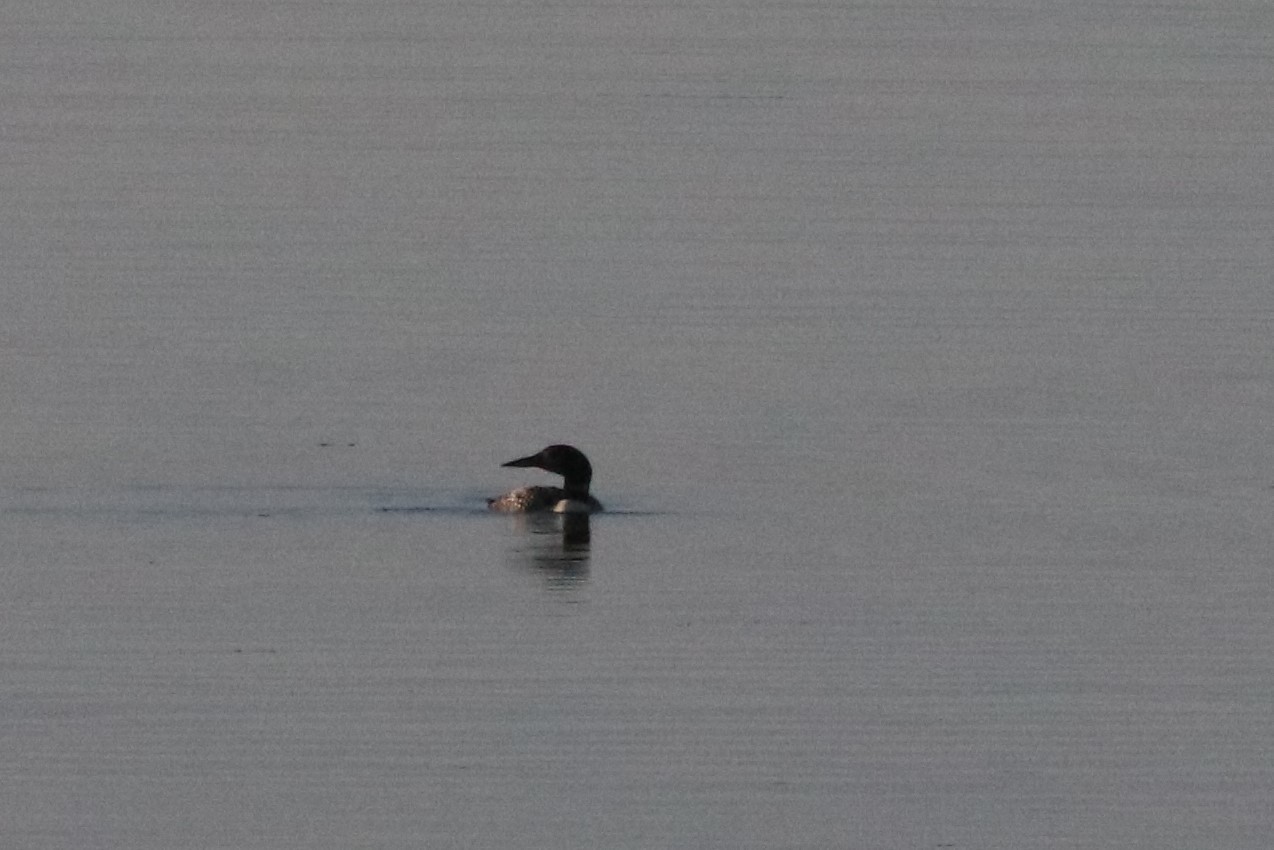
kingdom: Animalia
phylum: Chordata
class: Aves
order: Gaviiformes
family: Gaviidae
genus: Gavia
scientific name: Gavia immer
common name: Common loon
